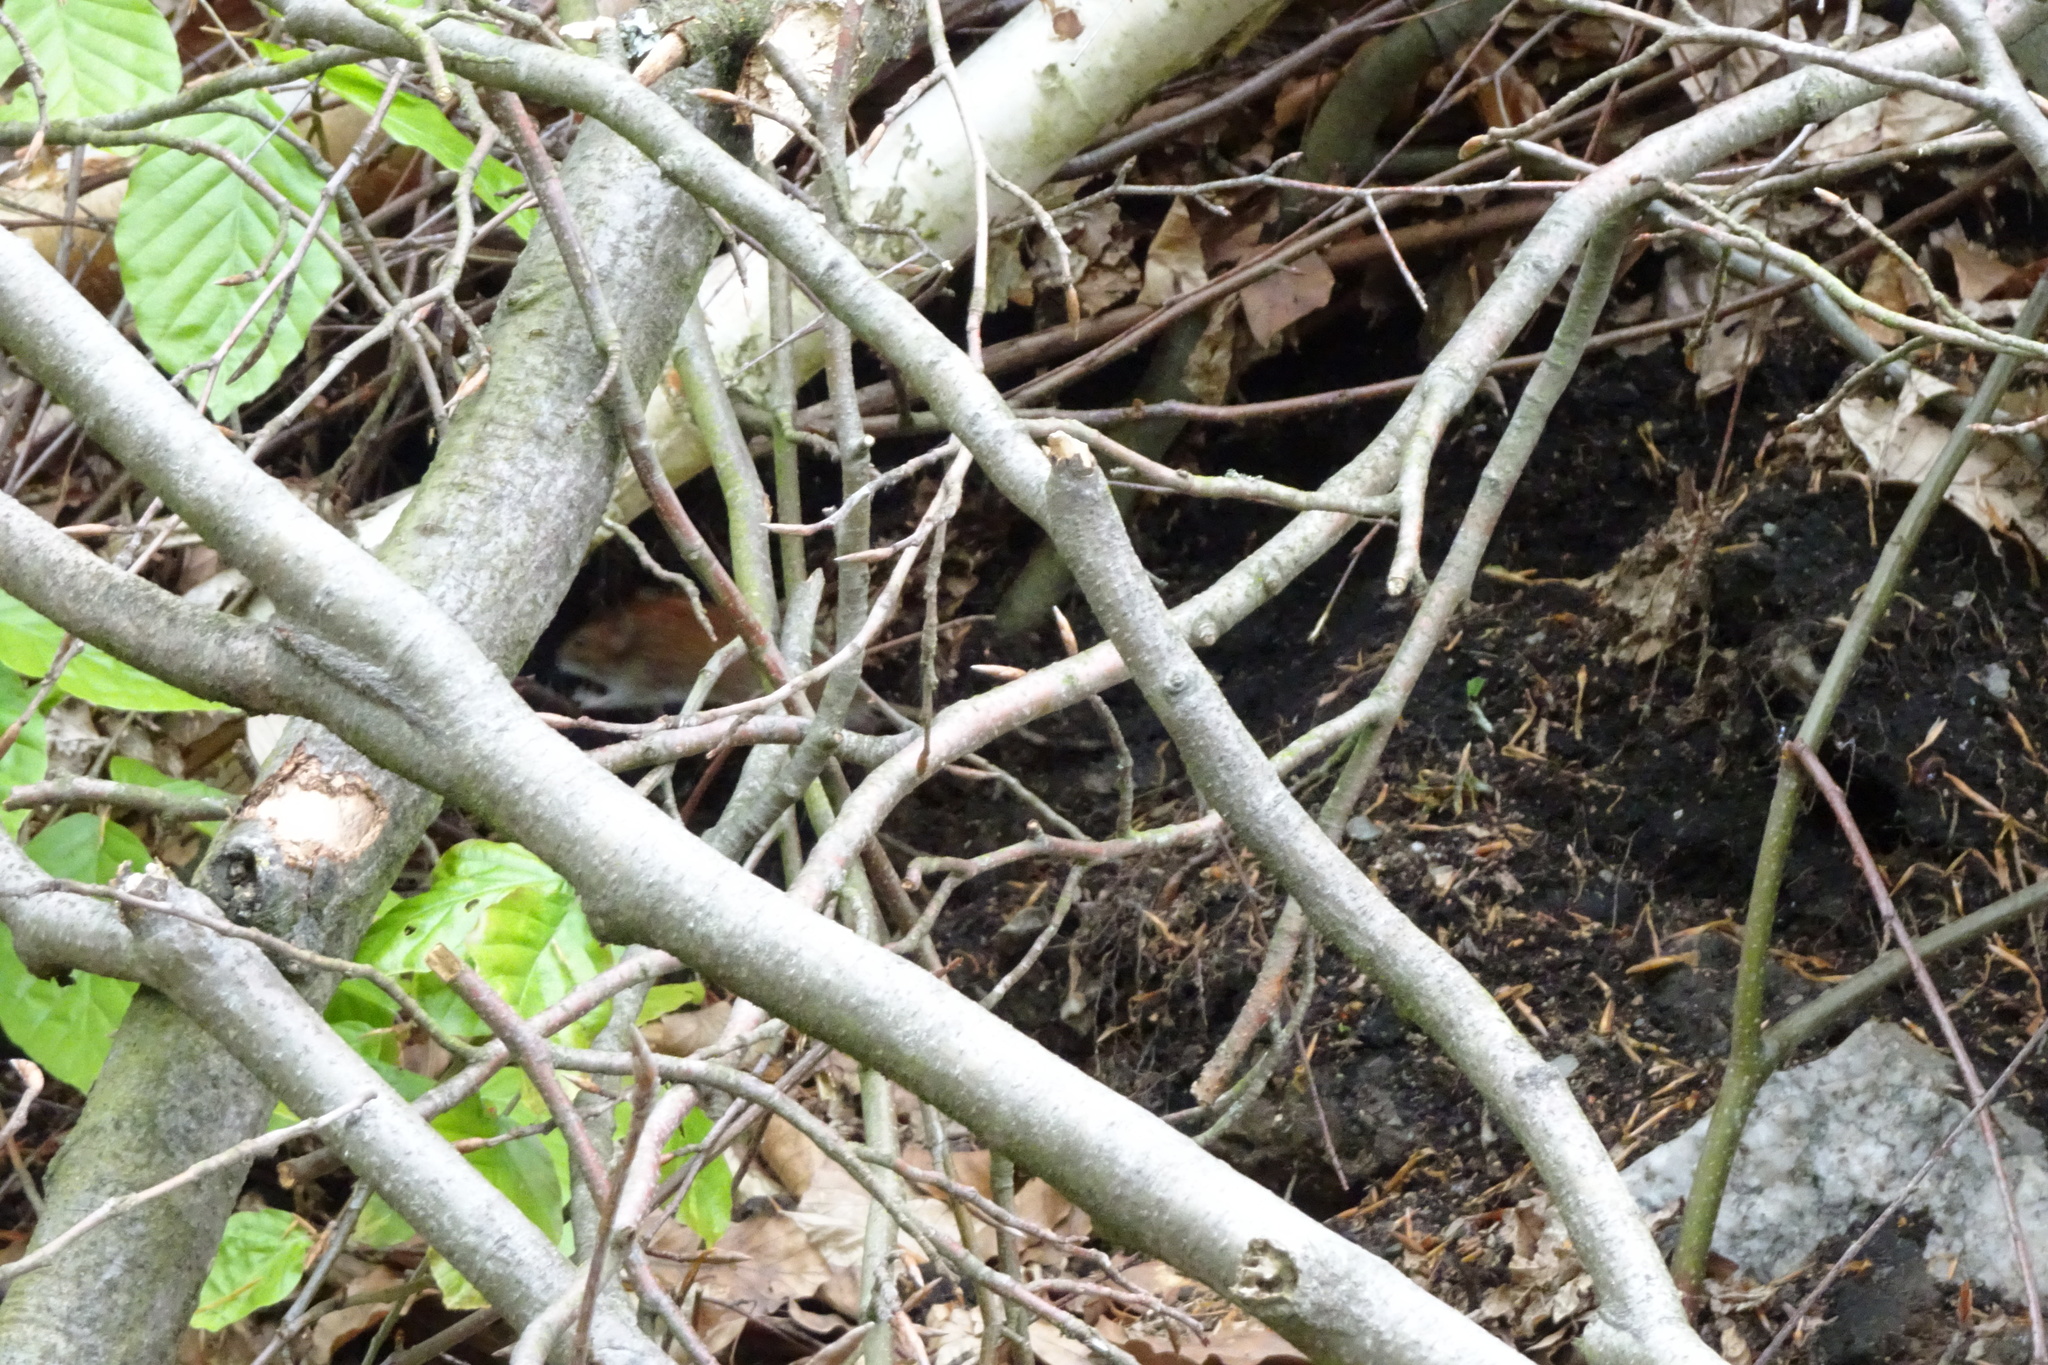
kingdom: Animalia
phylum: Chordata
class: Mammalia
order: Rodentia
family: Cricetidae
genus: Myodes
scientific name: Myodes glareolus
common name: Bank vole
